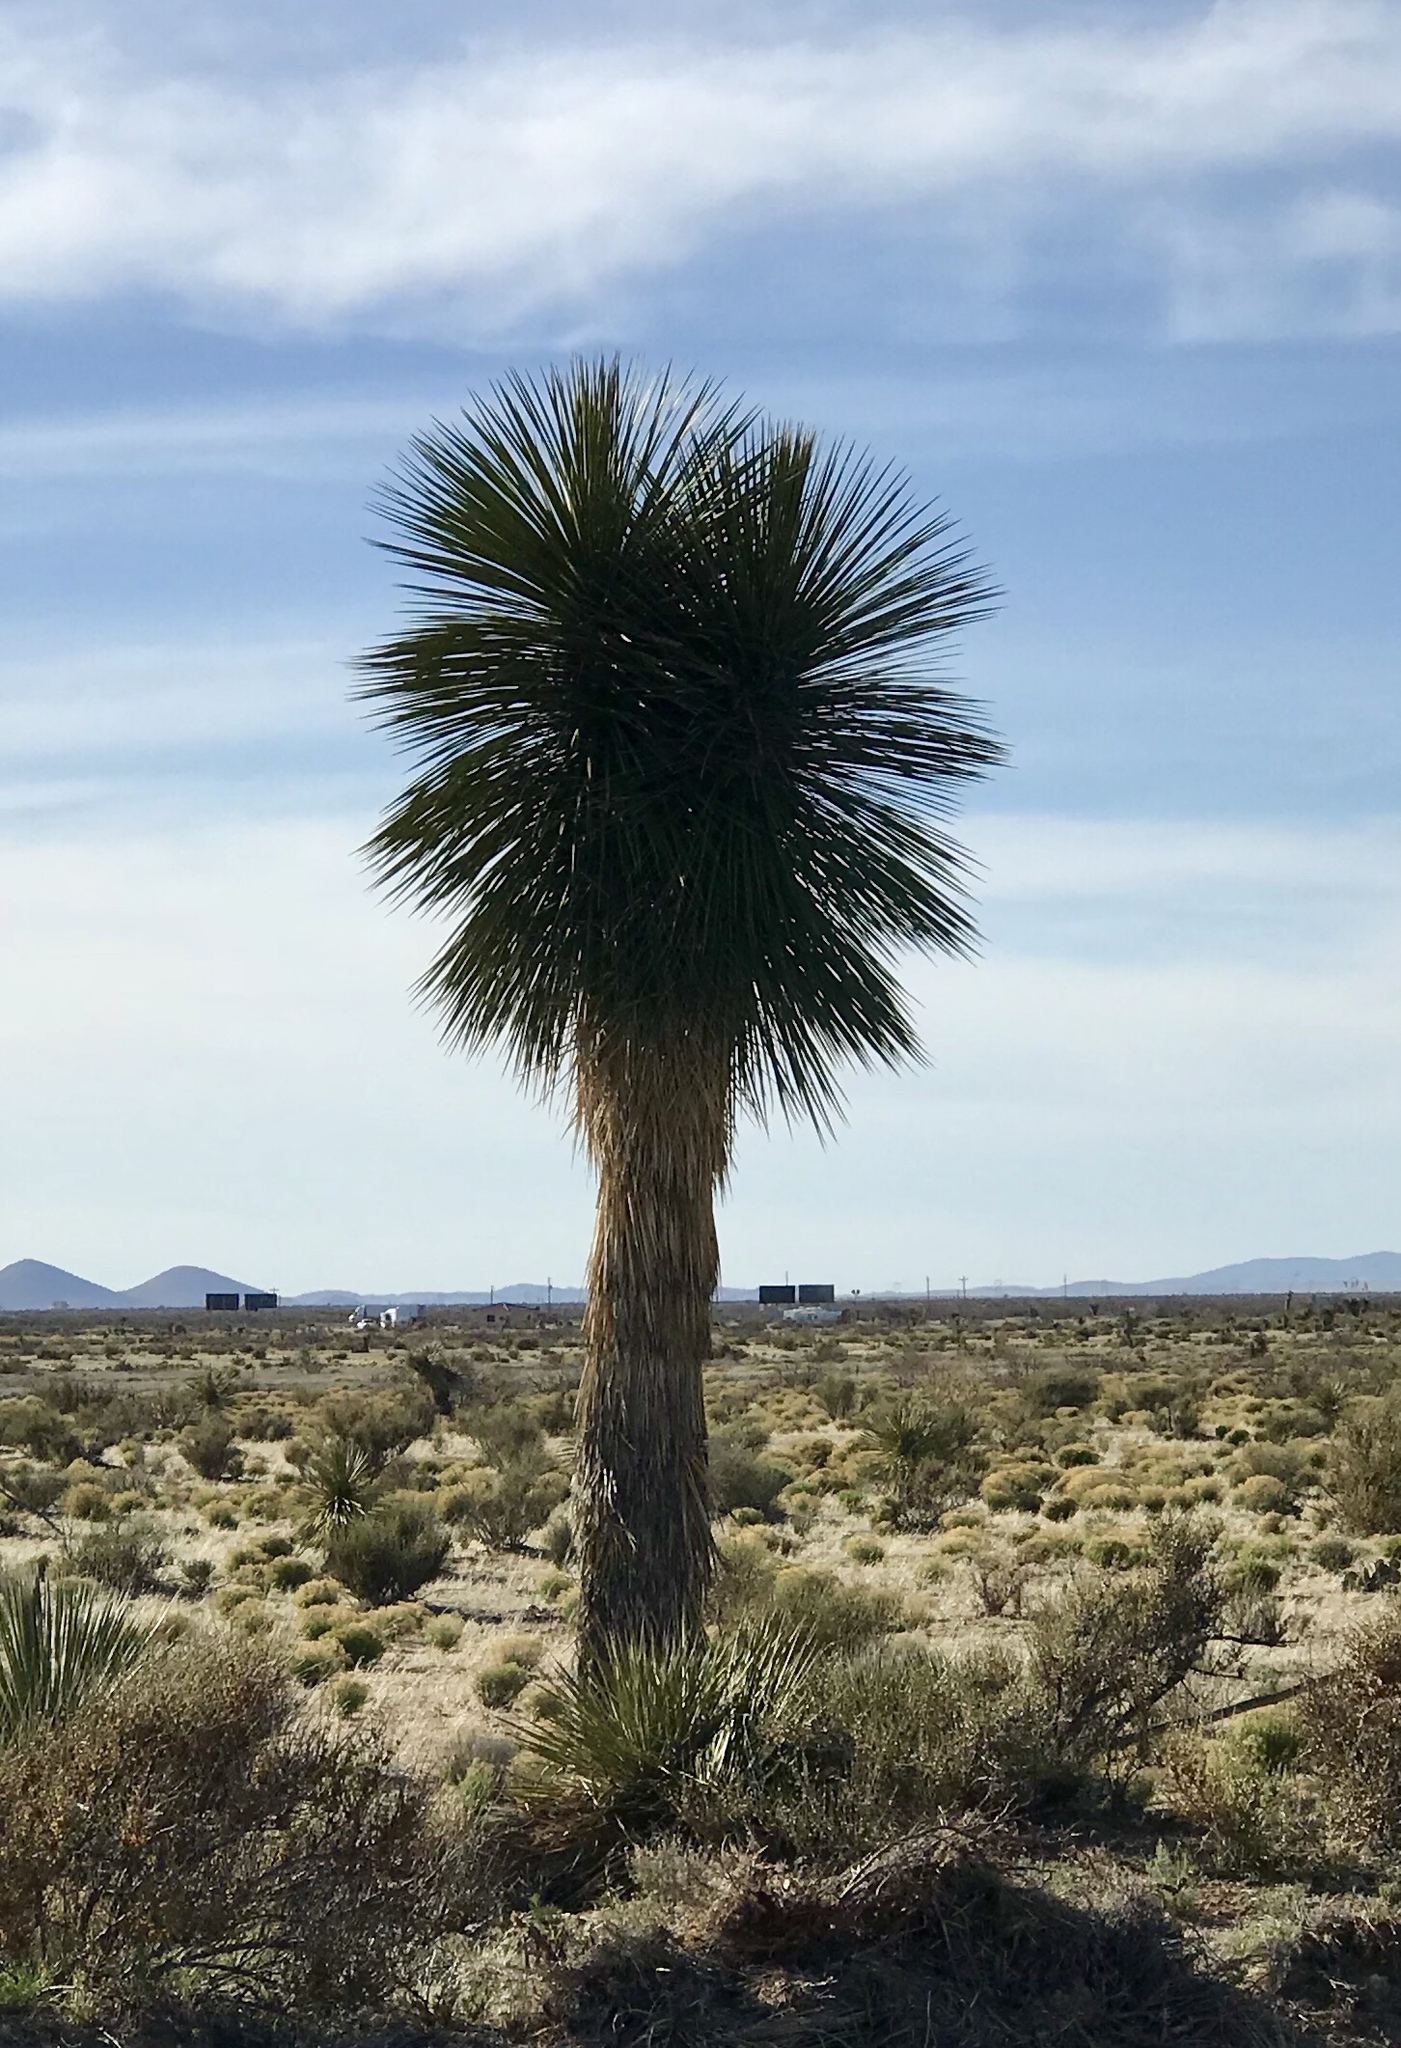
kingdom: Plantae
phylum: Tracheophyta
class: Liliopsida
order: Asparagales
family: Asparagaceae
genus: Yucca
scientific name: Yucca elata
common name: Palmella
